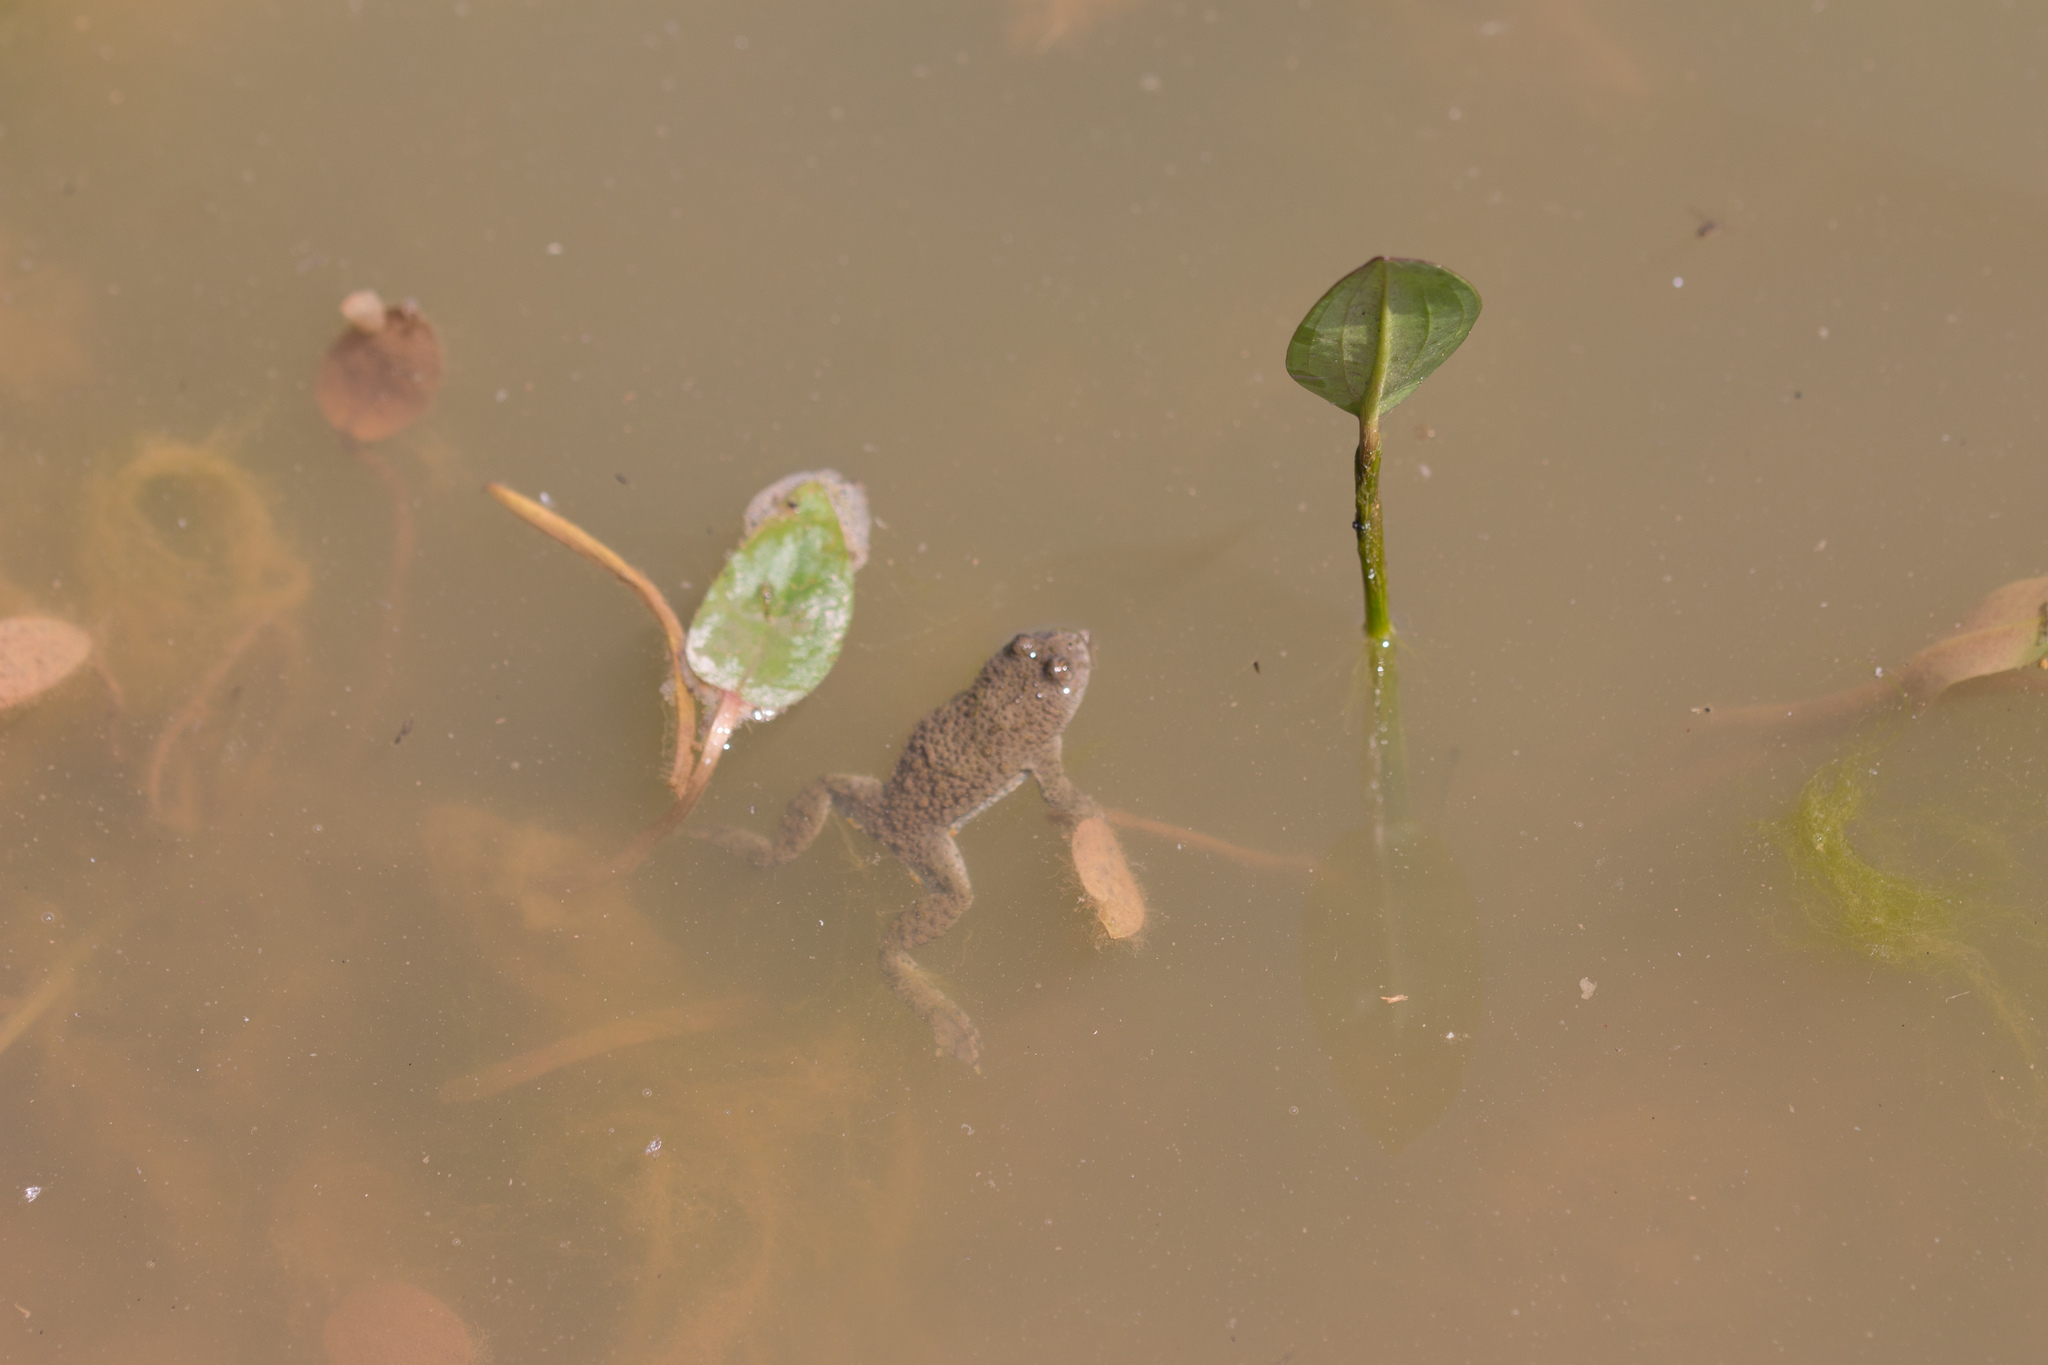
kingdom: Animalia
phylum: Chordata
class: Amphibia
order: Anura
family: Bombinatoridae
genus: Bombina
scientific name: Bombina variegata
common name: Yellow-bellied toad
